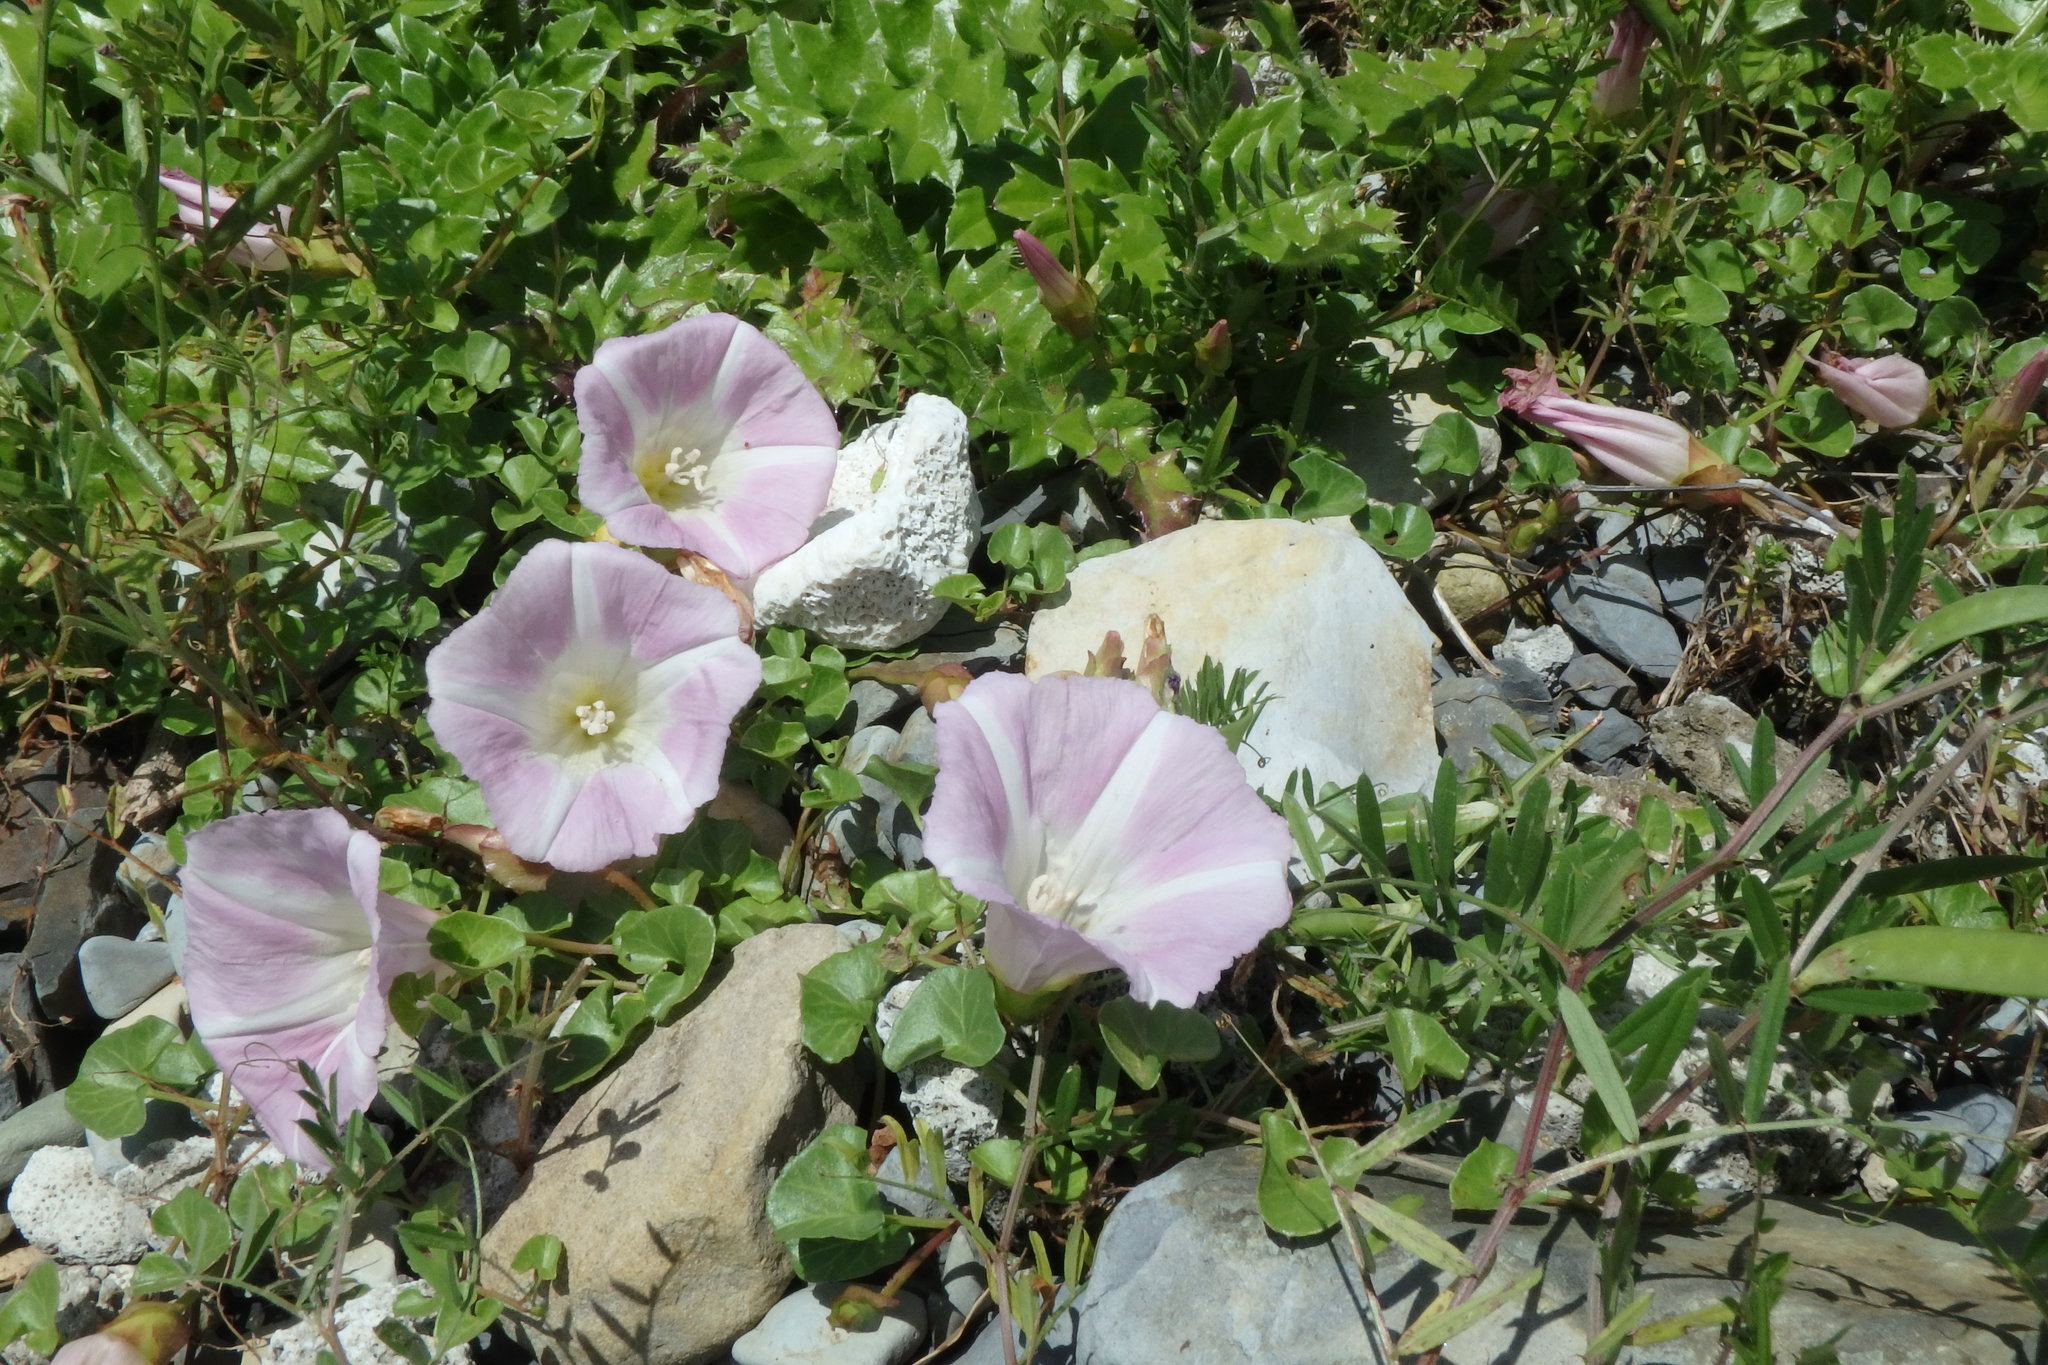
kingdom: Plantae
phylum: Tracheophyta
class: Magnoliopsida
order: Solanales
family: Convolvulaceae
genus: Calystegia
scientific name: Calystegia soldanella
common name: Sea bindweed
